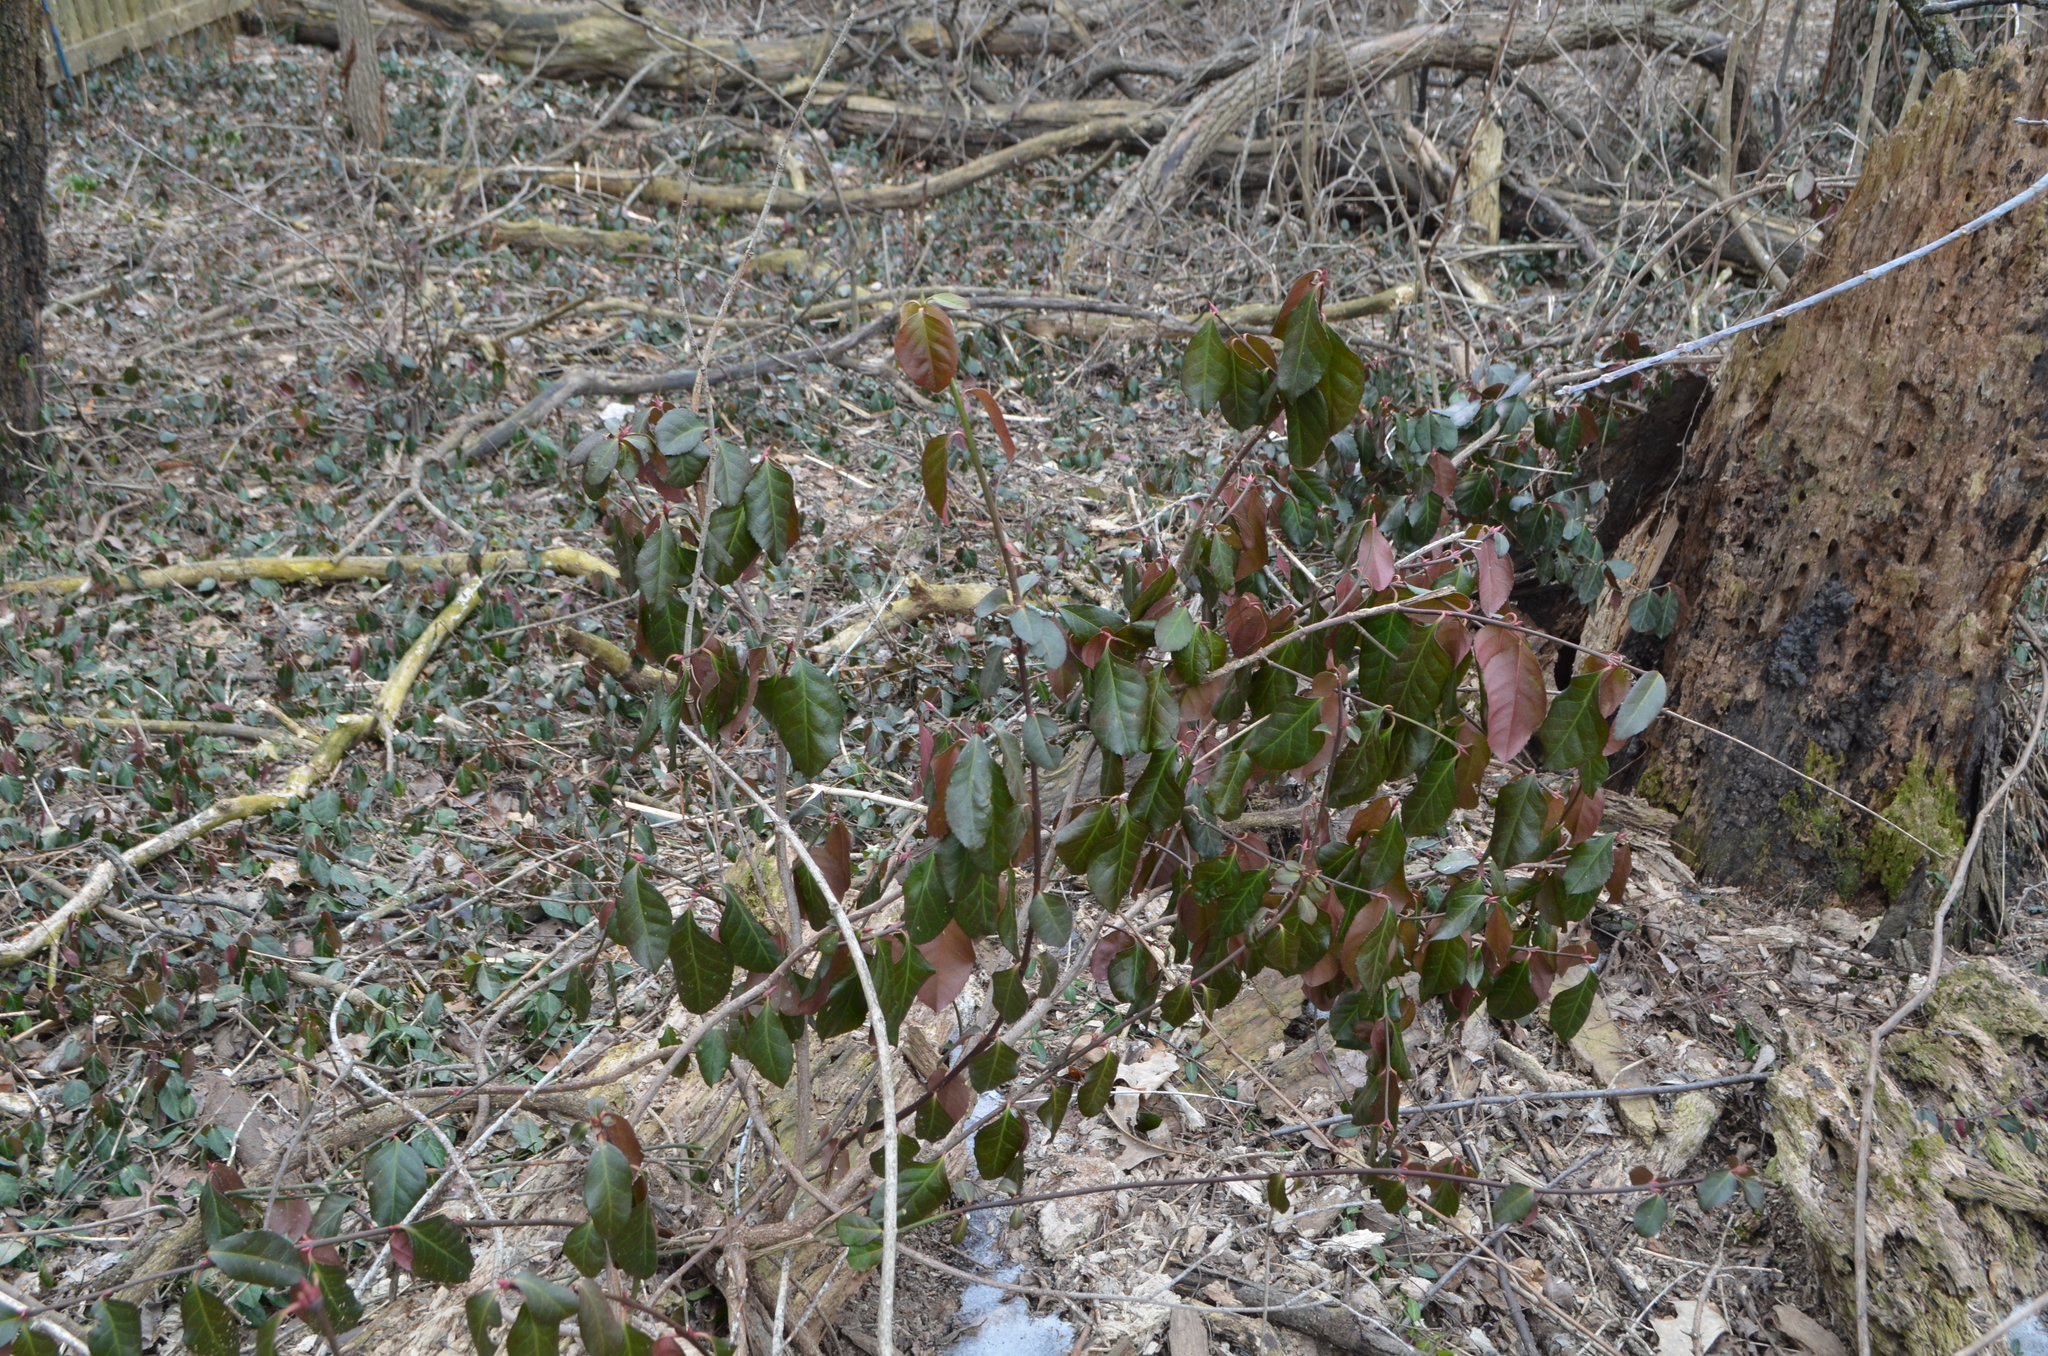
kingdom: Plantae
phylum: Tracheophyta
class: Magnoliopsida
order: Celastrales
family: Celastraceae
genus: Euonymus
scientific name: Euonymus fortunei
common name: Climbing euonymus
